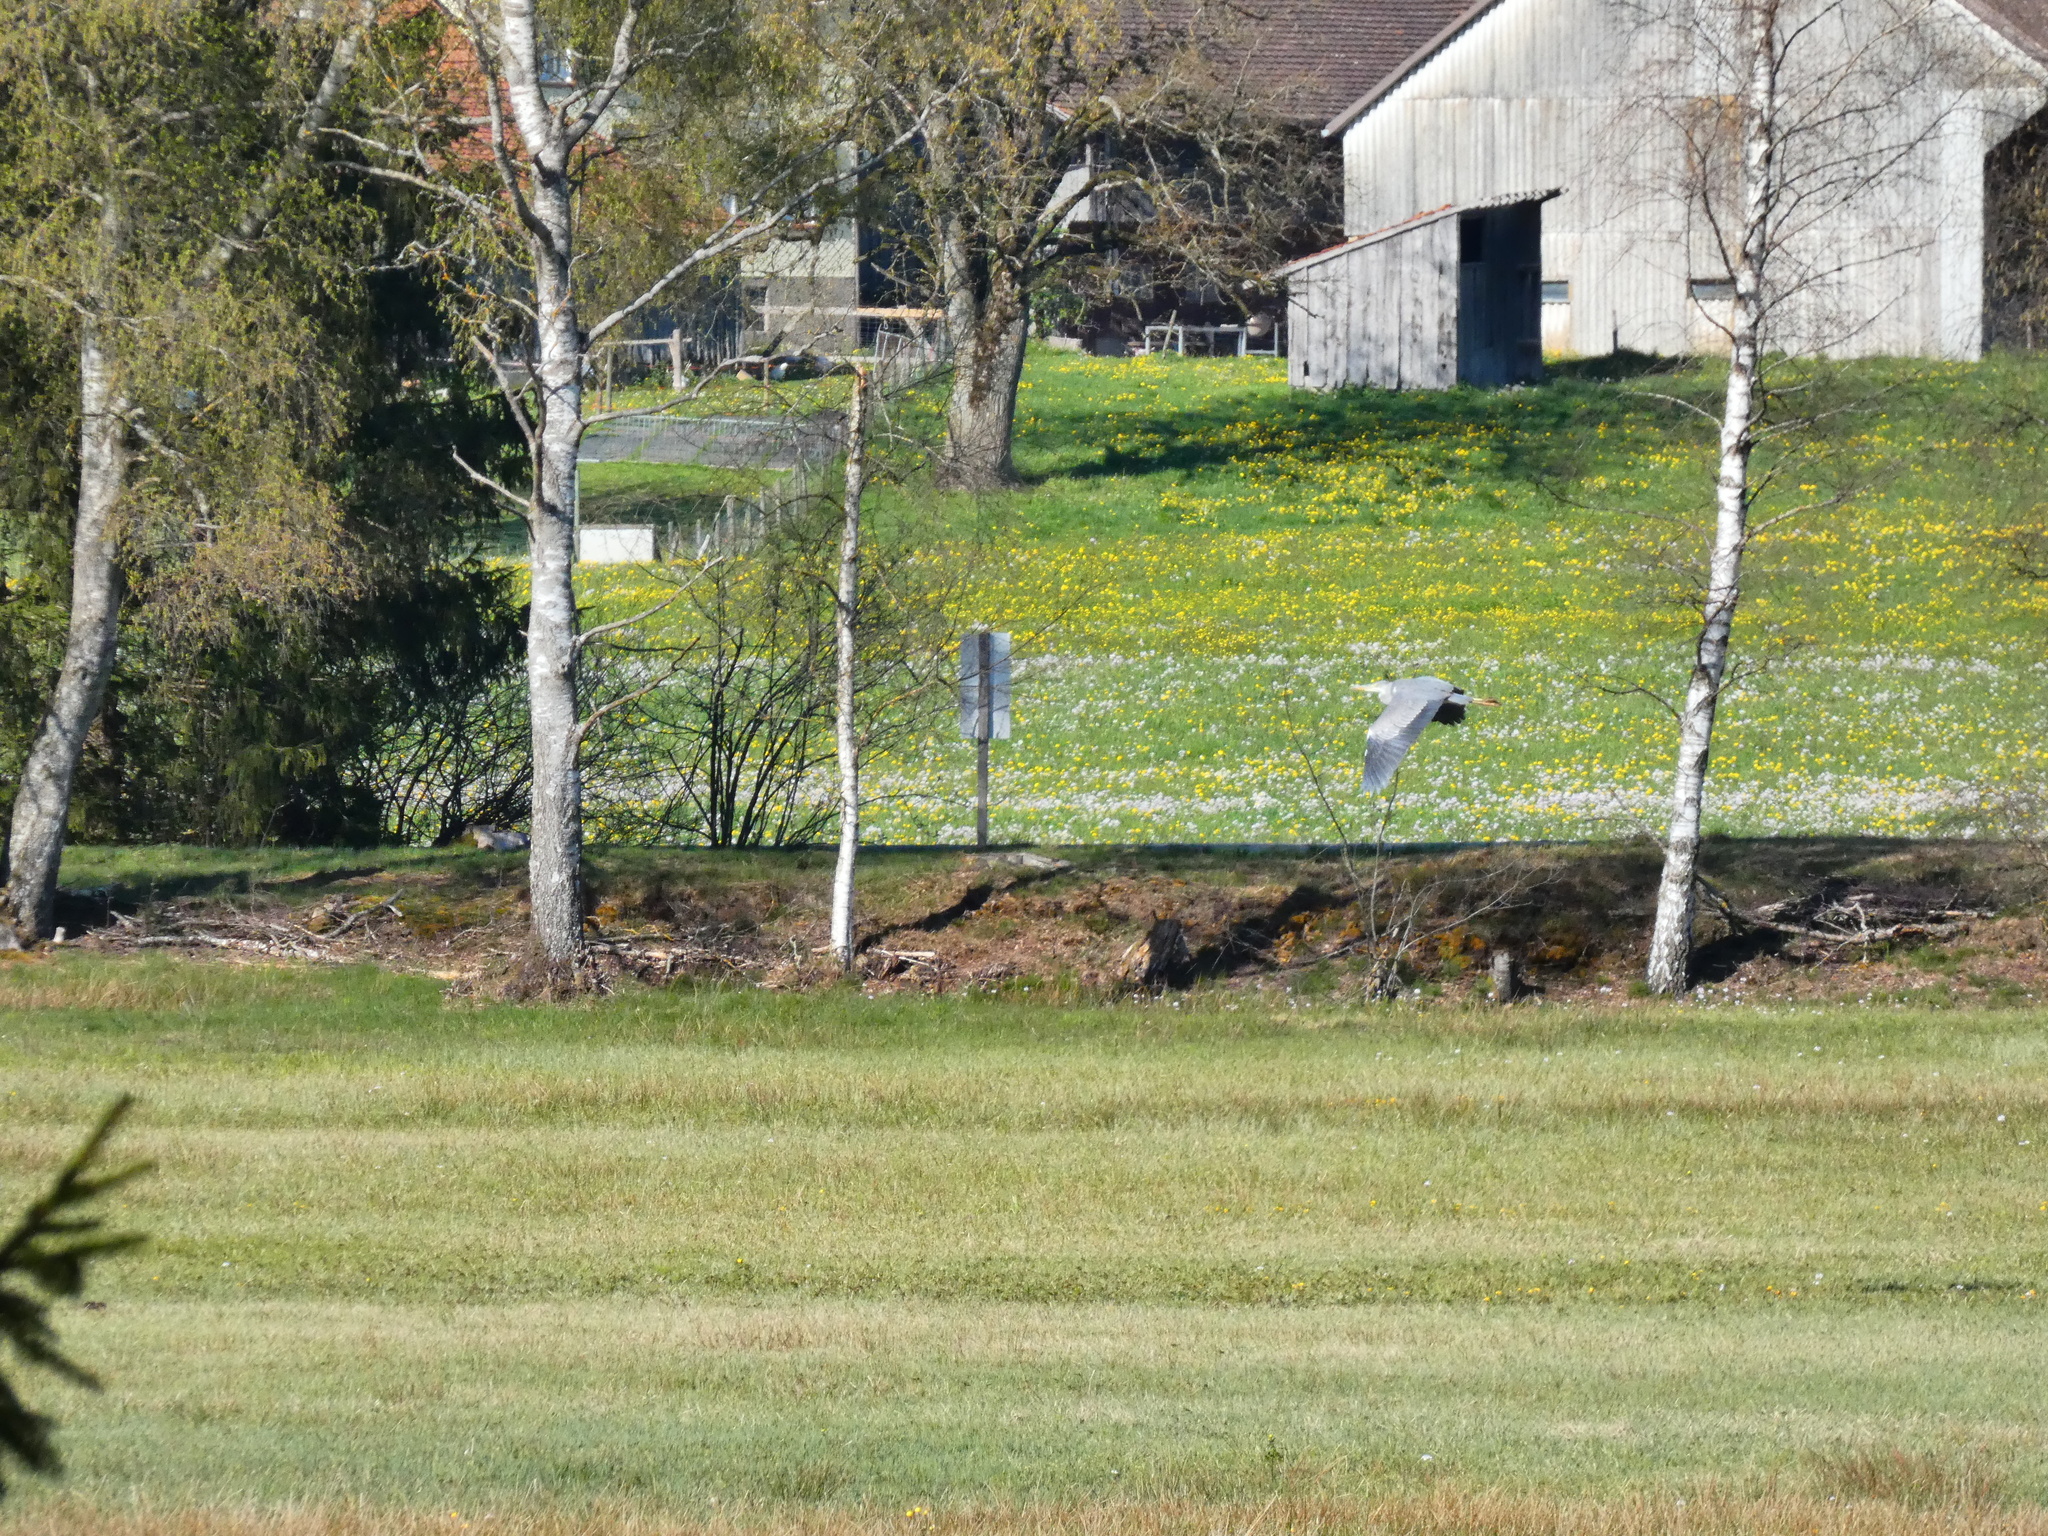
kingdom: Animalia
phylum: Chordata
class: Aves
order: Pelecaniformes
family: Ardeidae
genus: Ardea
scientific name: Ardea cinerea
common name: Grey heron
